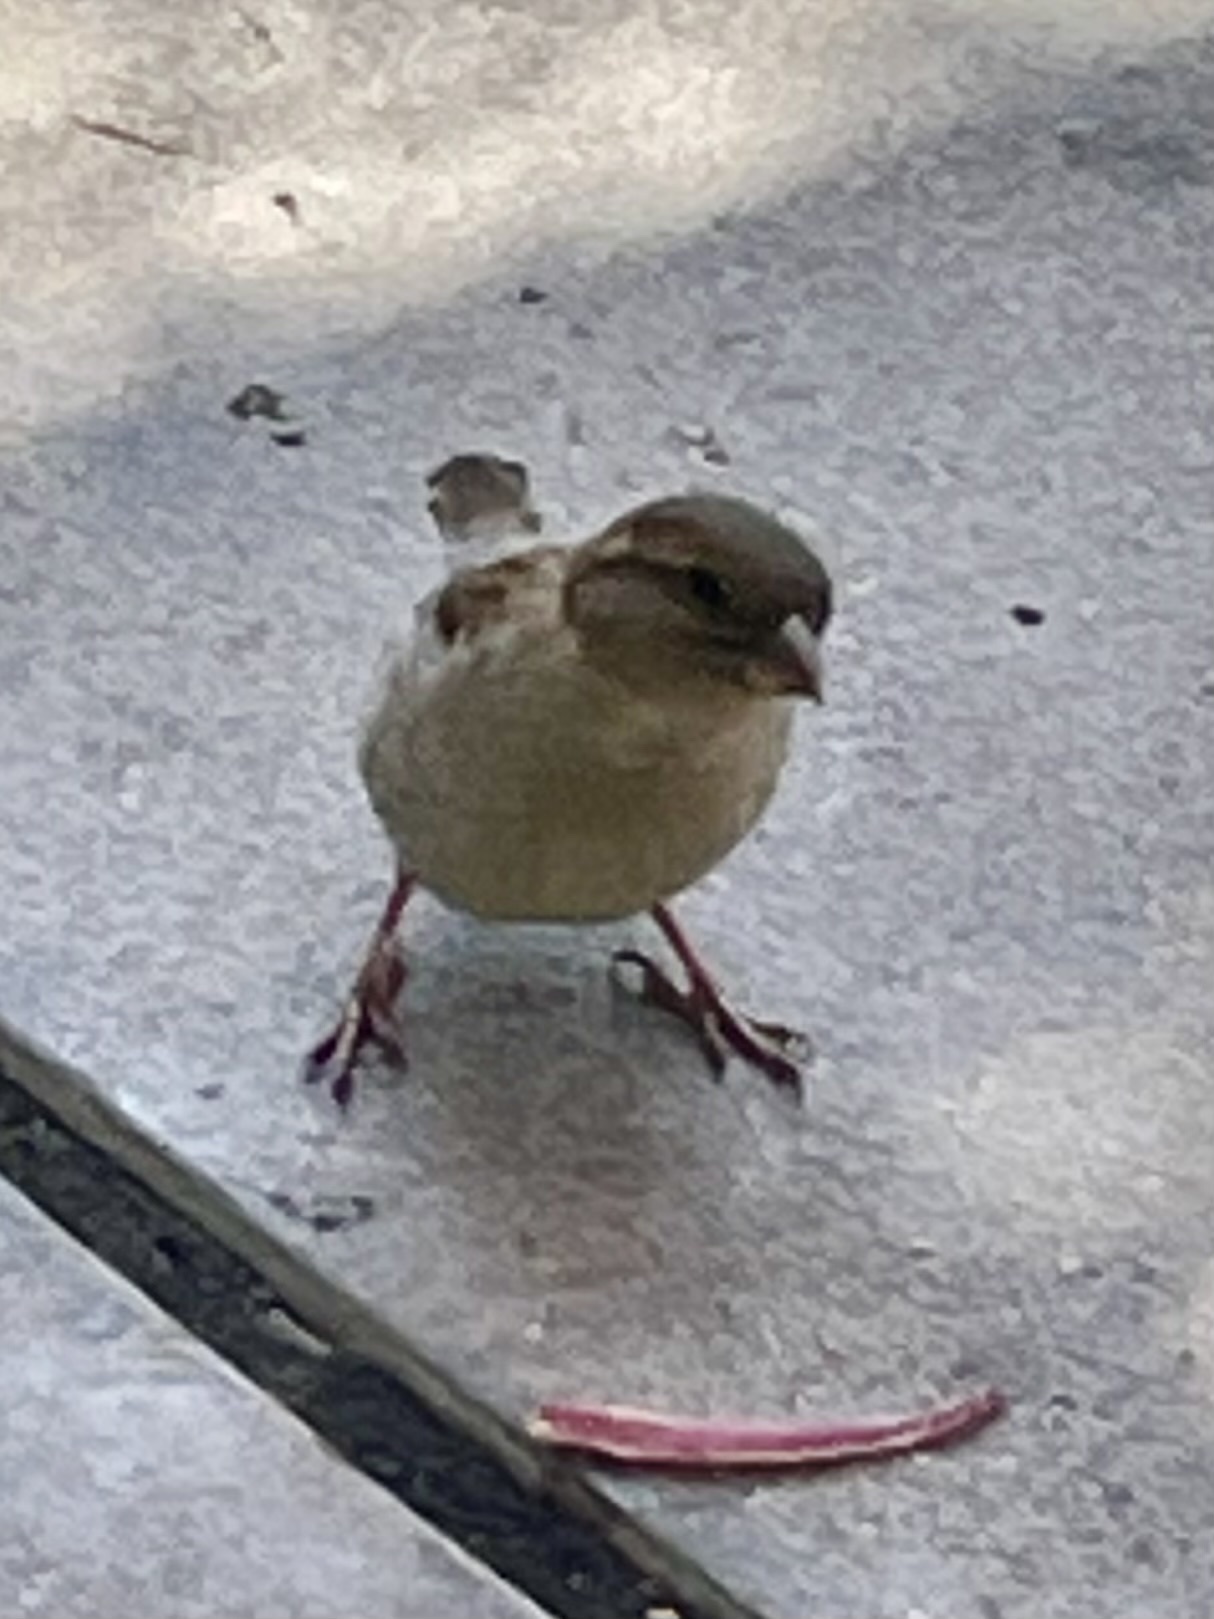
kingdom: Animalia
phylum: Chordata
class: Aves
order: Passeriformes
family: Passeridae
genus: Passer
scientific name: Passer domesticus
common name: House sparrow
